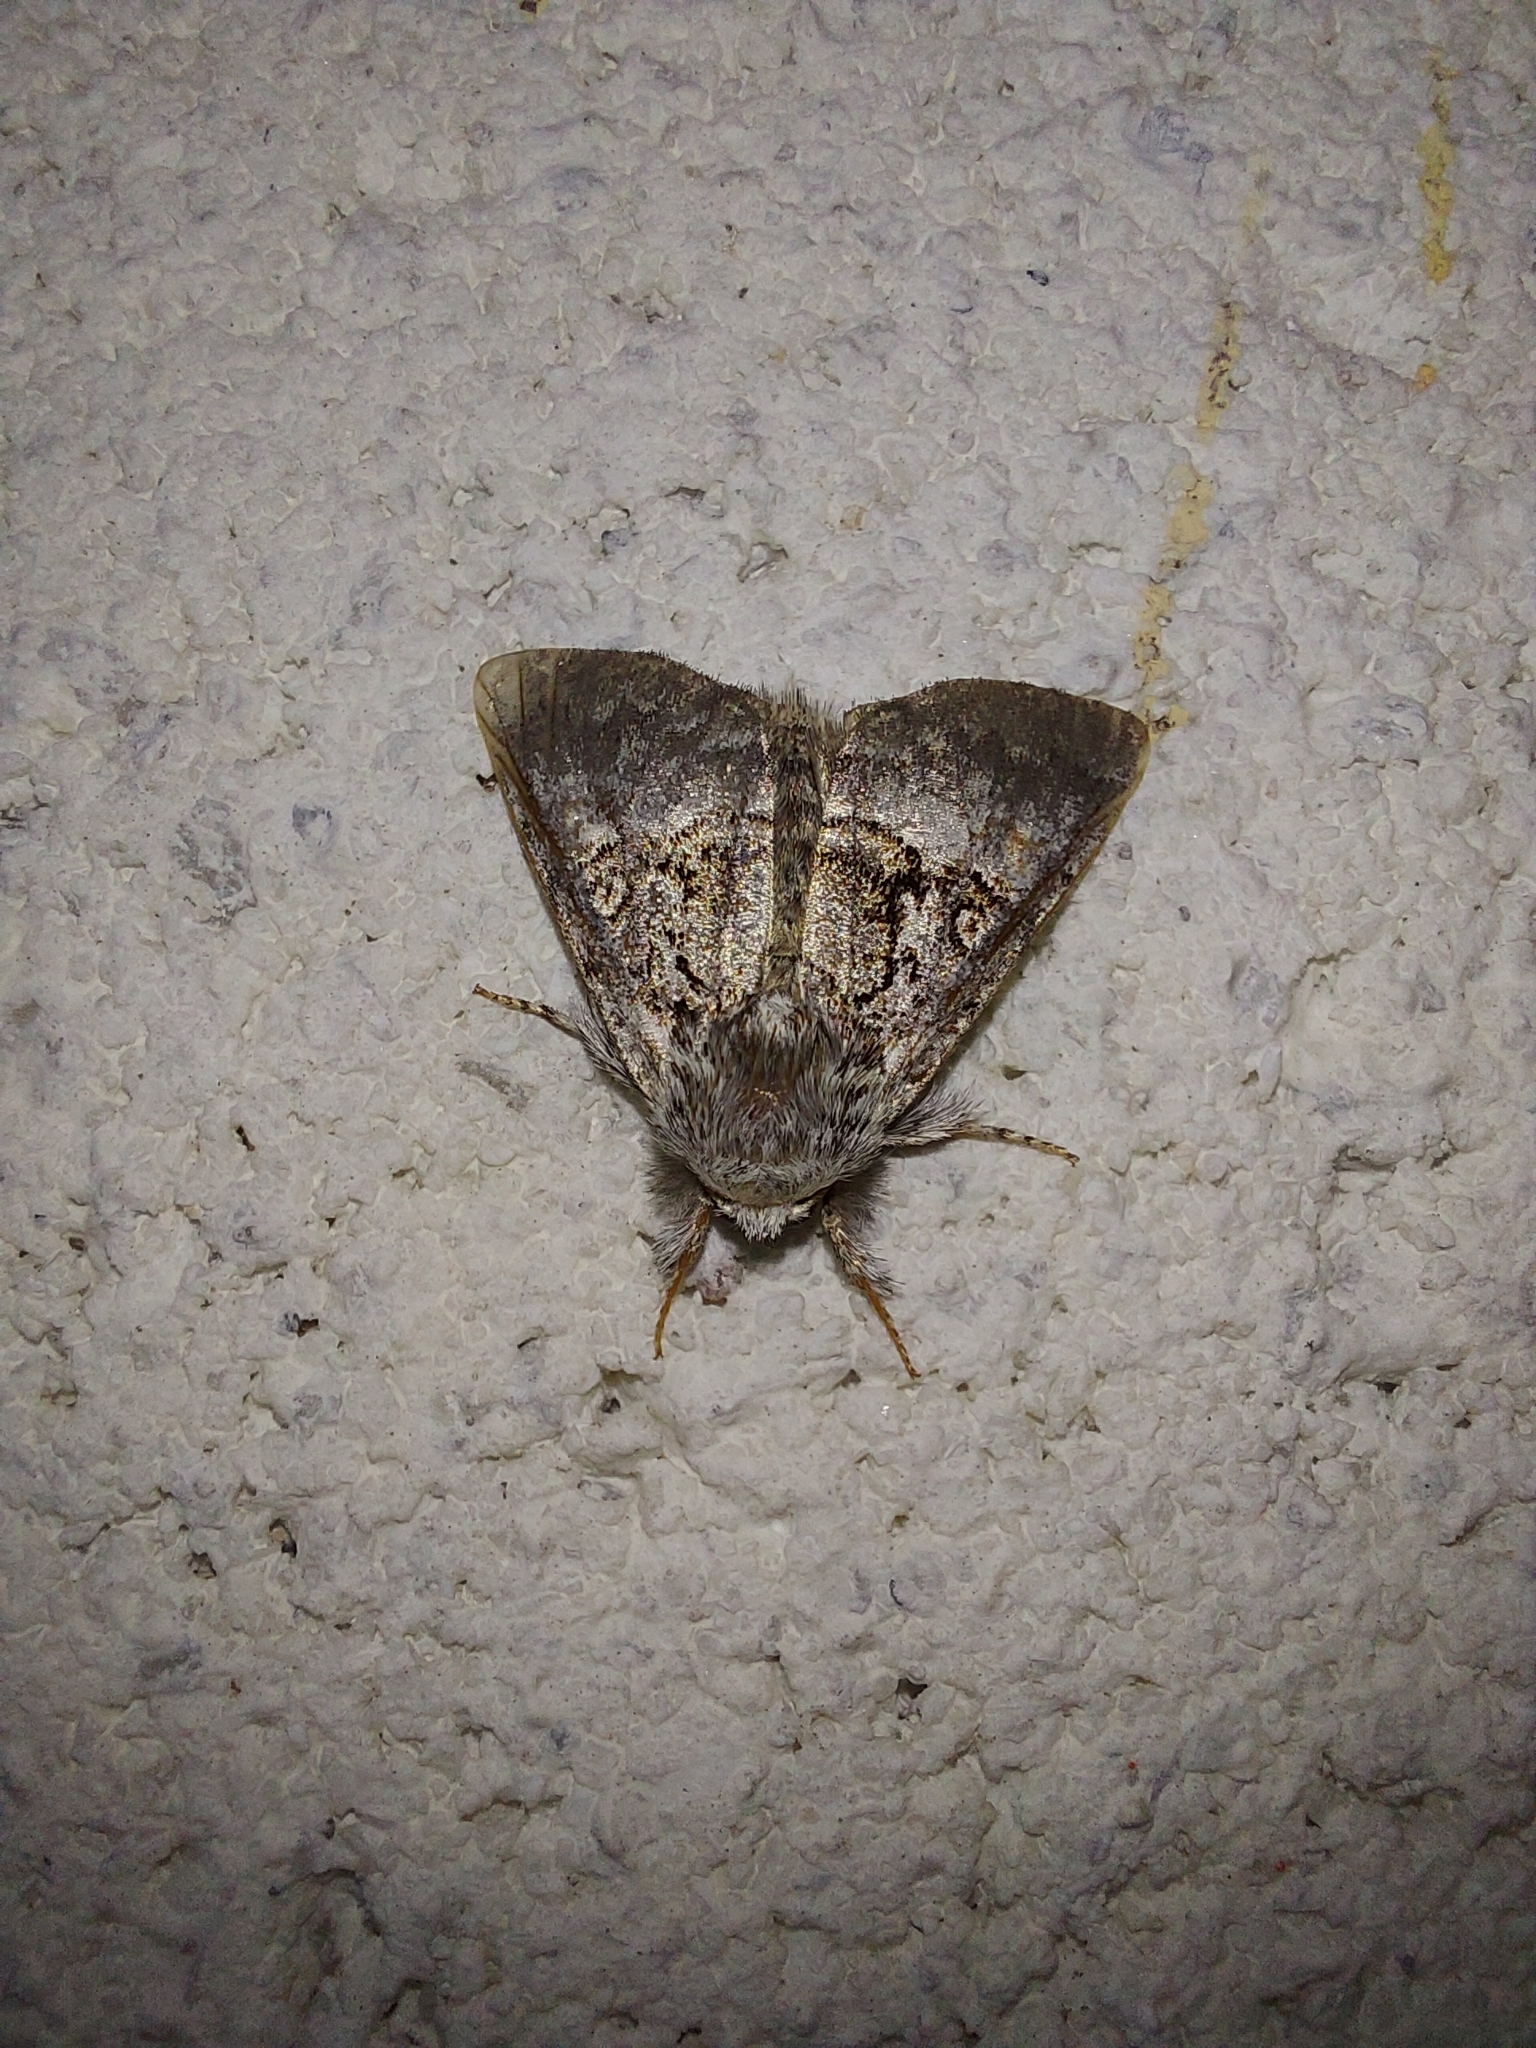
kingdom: Animalia
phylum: Arthropoda
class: Insecta
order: Lepidoptera
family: Noctuidae
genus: Colocasia
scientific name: Colocasia coryli
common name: Nut-tree tussock
